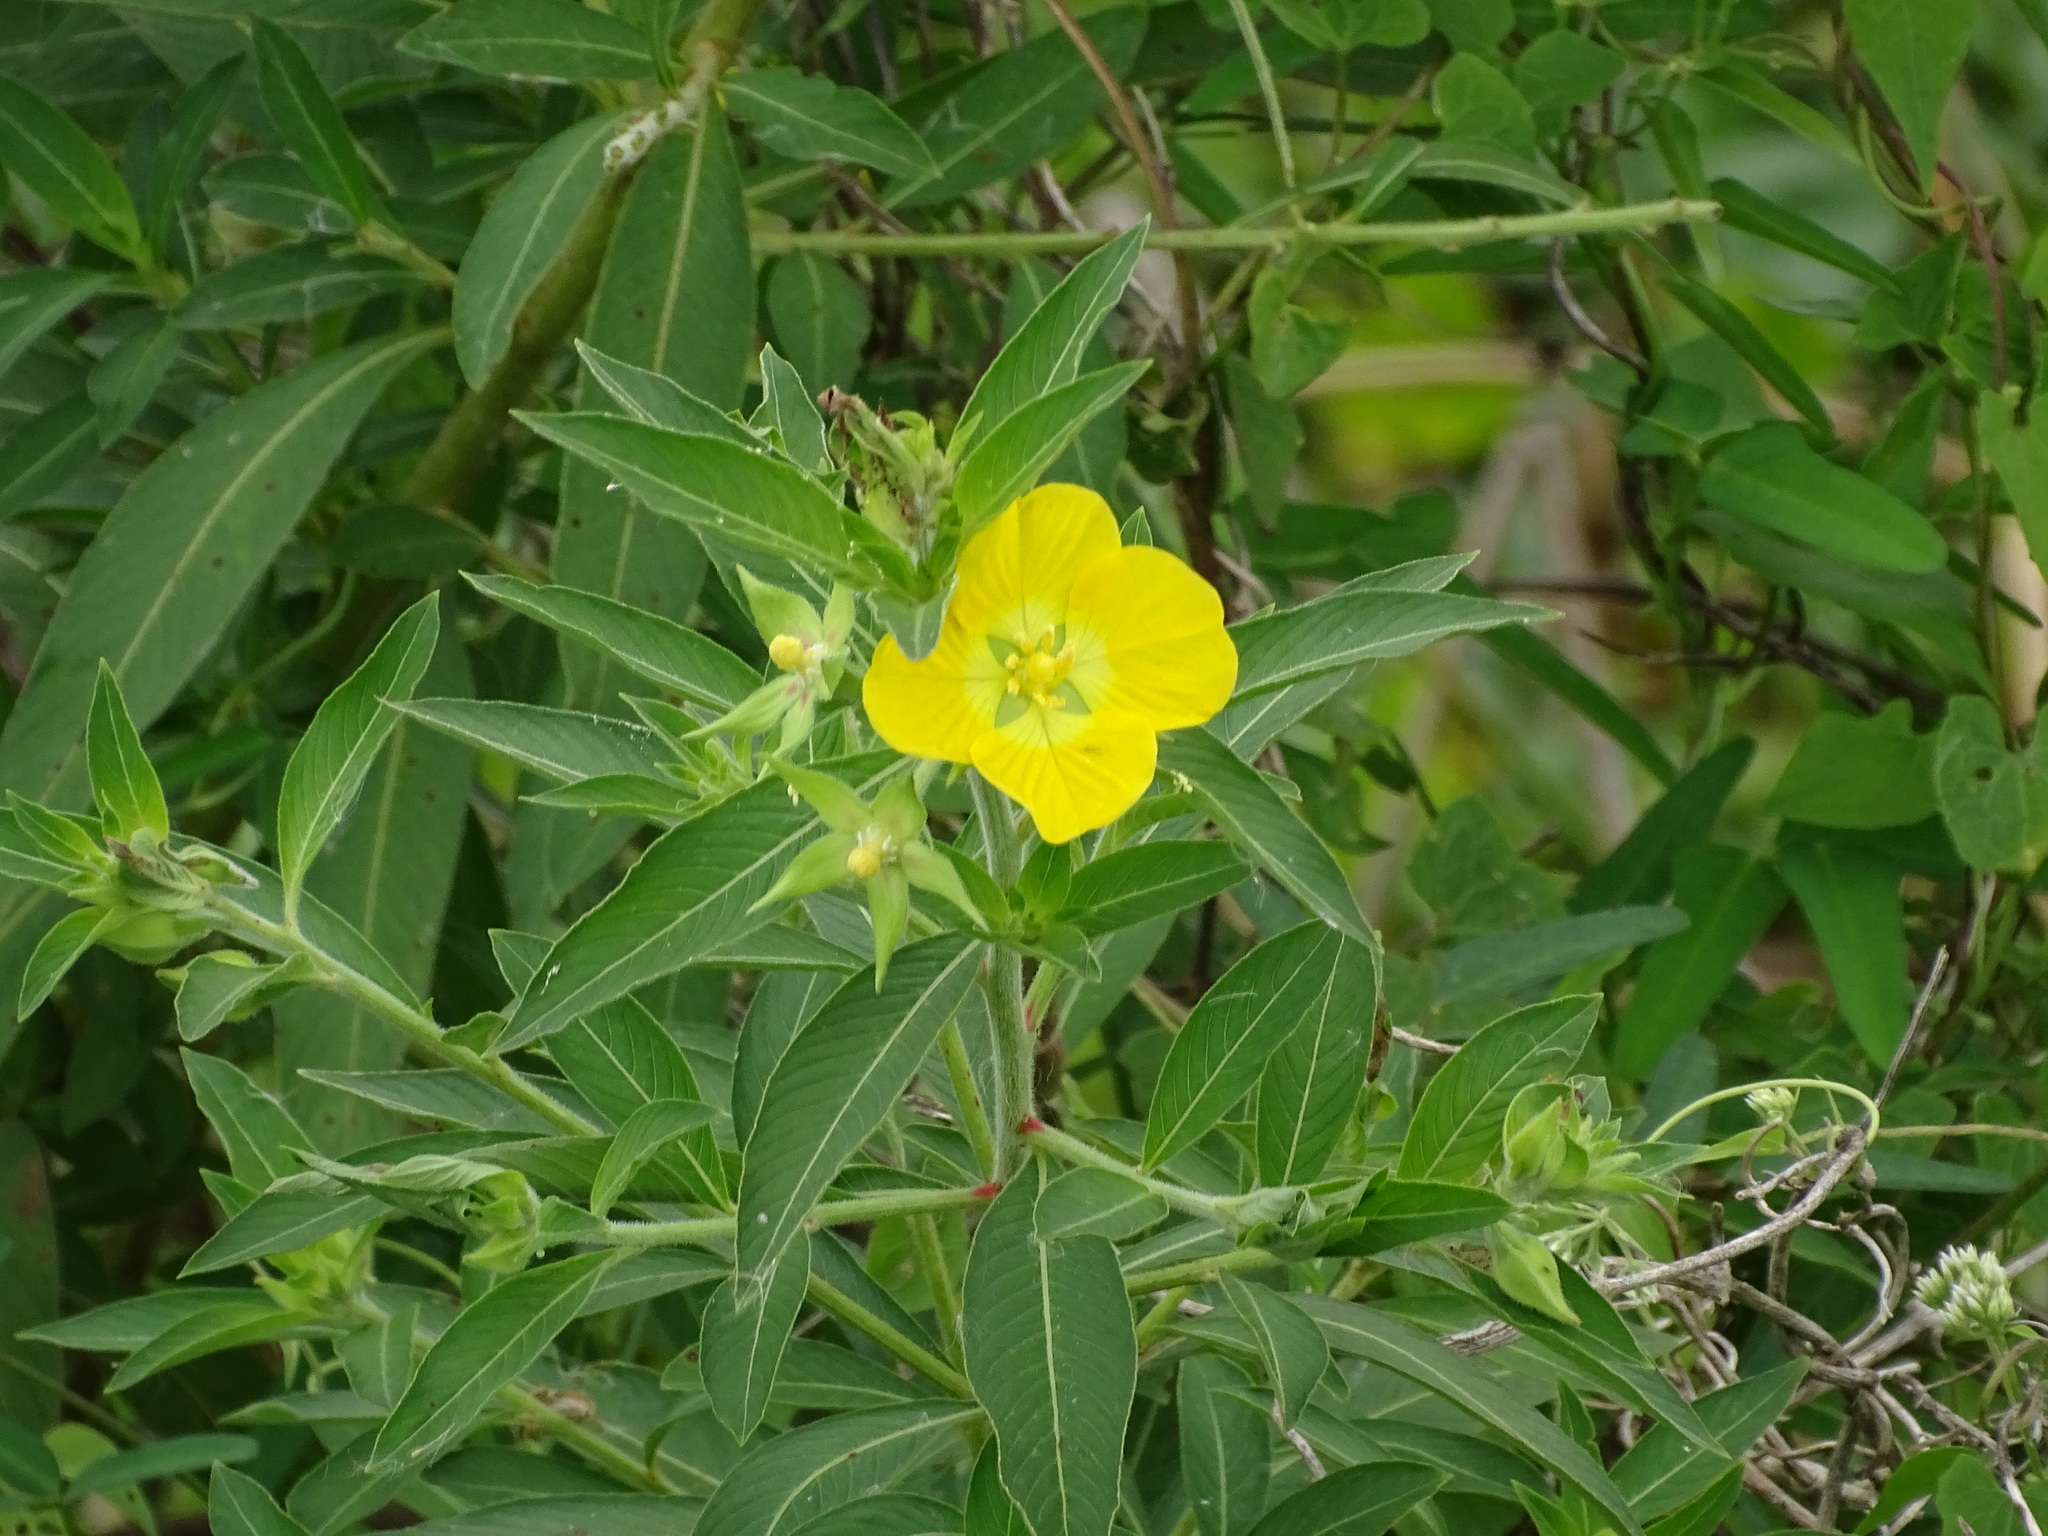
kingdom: Plantae
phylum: Tracheophyta
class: Magnoliopsida
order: Myrtales
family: Onagraceae
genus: Ludwigia
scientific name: Ludwigia peruviana
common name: Peruvian primrose-willow
